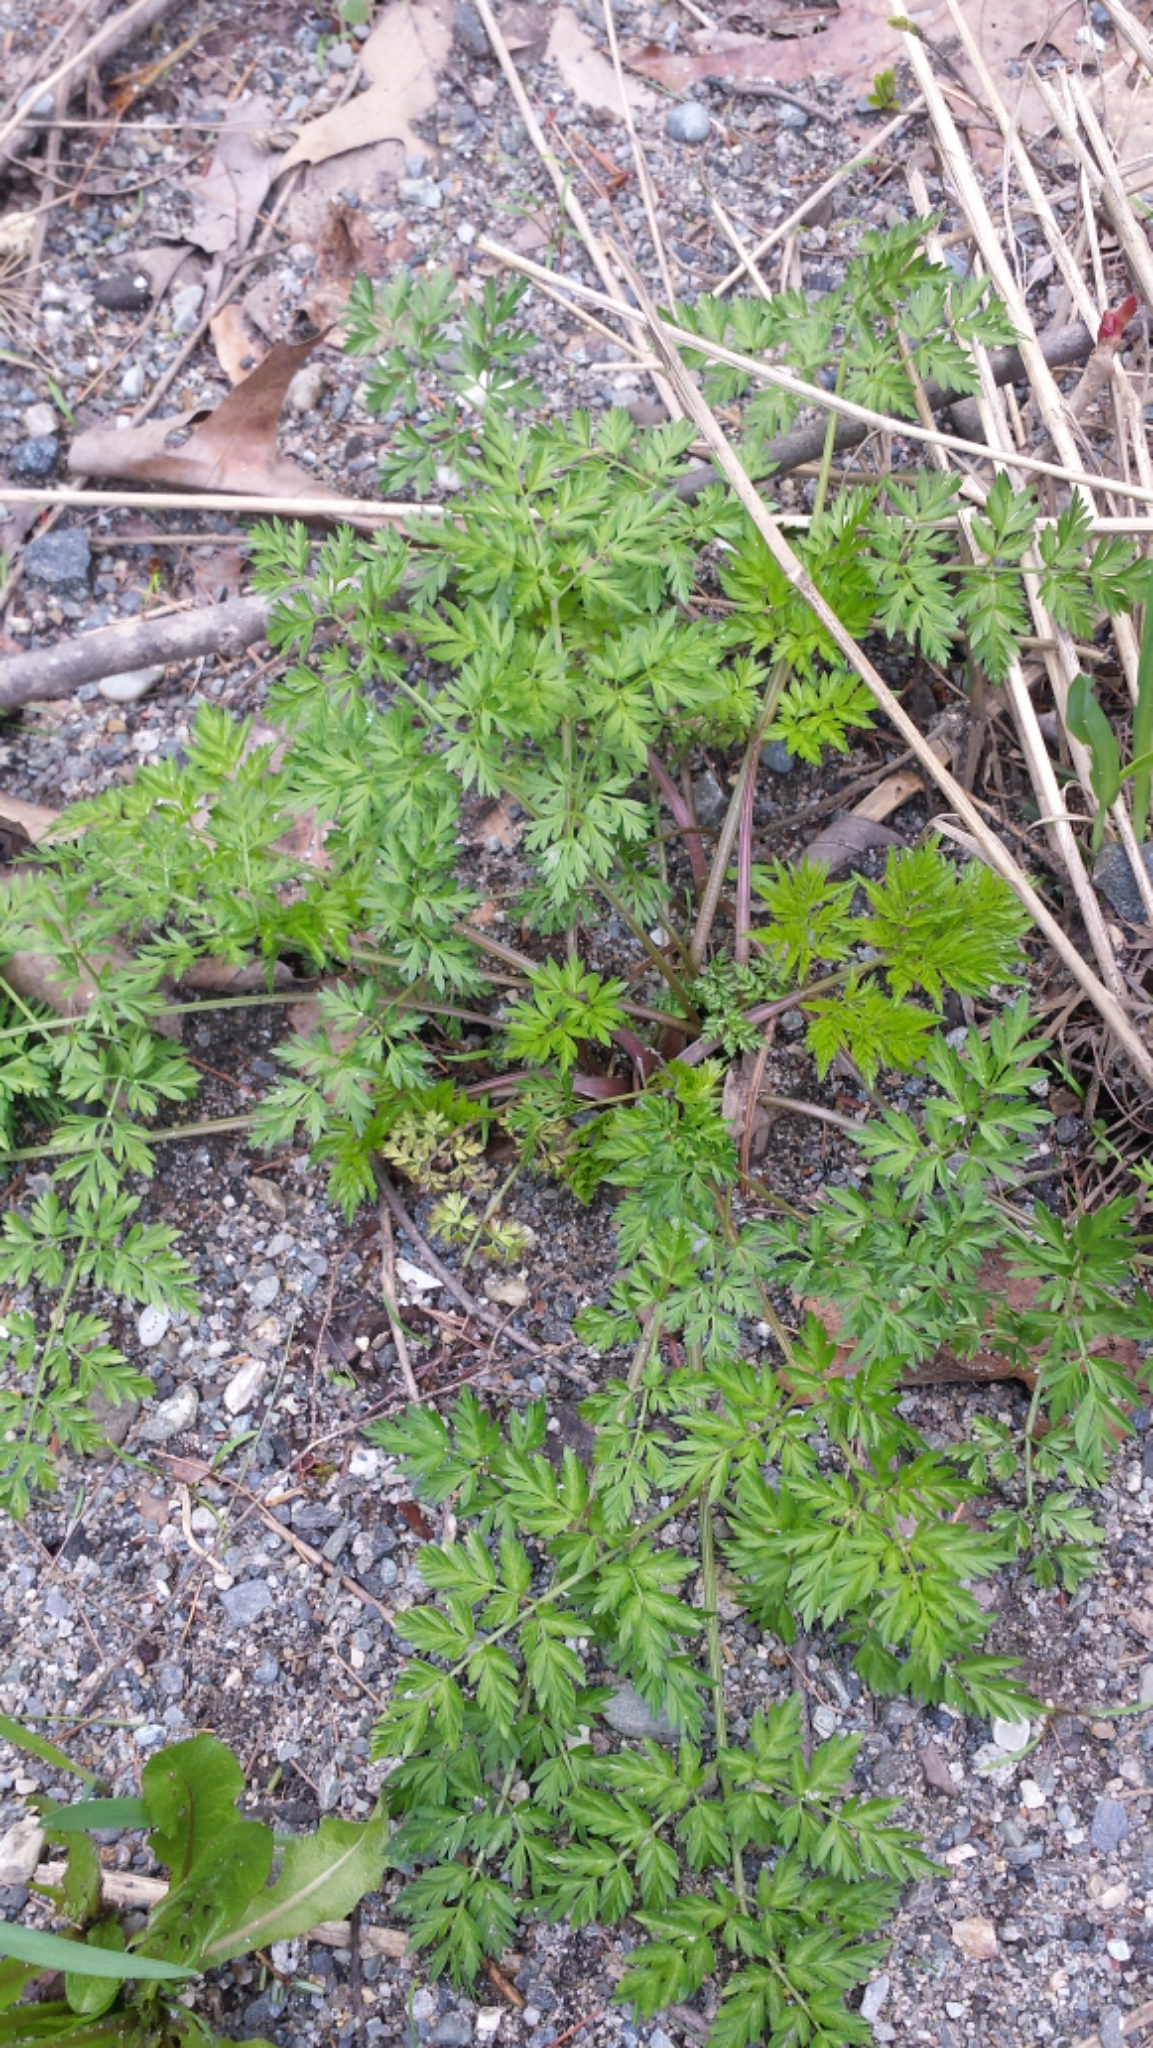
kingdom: Plantae
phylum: Tracheophyta
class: Magnoliopsida
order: Apiales
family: Apiaceae
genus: Anthriscus
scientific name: Anthriscus sylvestris
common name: Cow parsley
